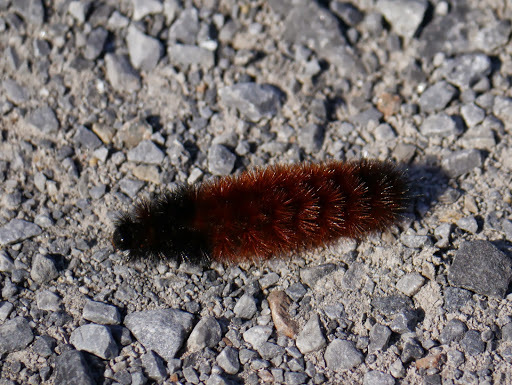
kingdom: Animalia
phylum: Arthropoda
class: Insecta
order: Lepidoptera
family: Erebidae
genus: Pyrrharctia
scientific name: Pyrrharctia isabella
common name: Isabella tiger moth
